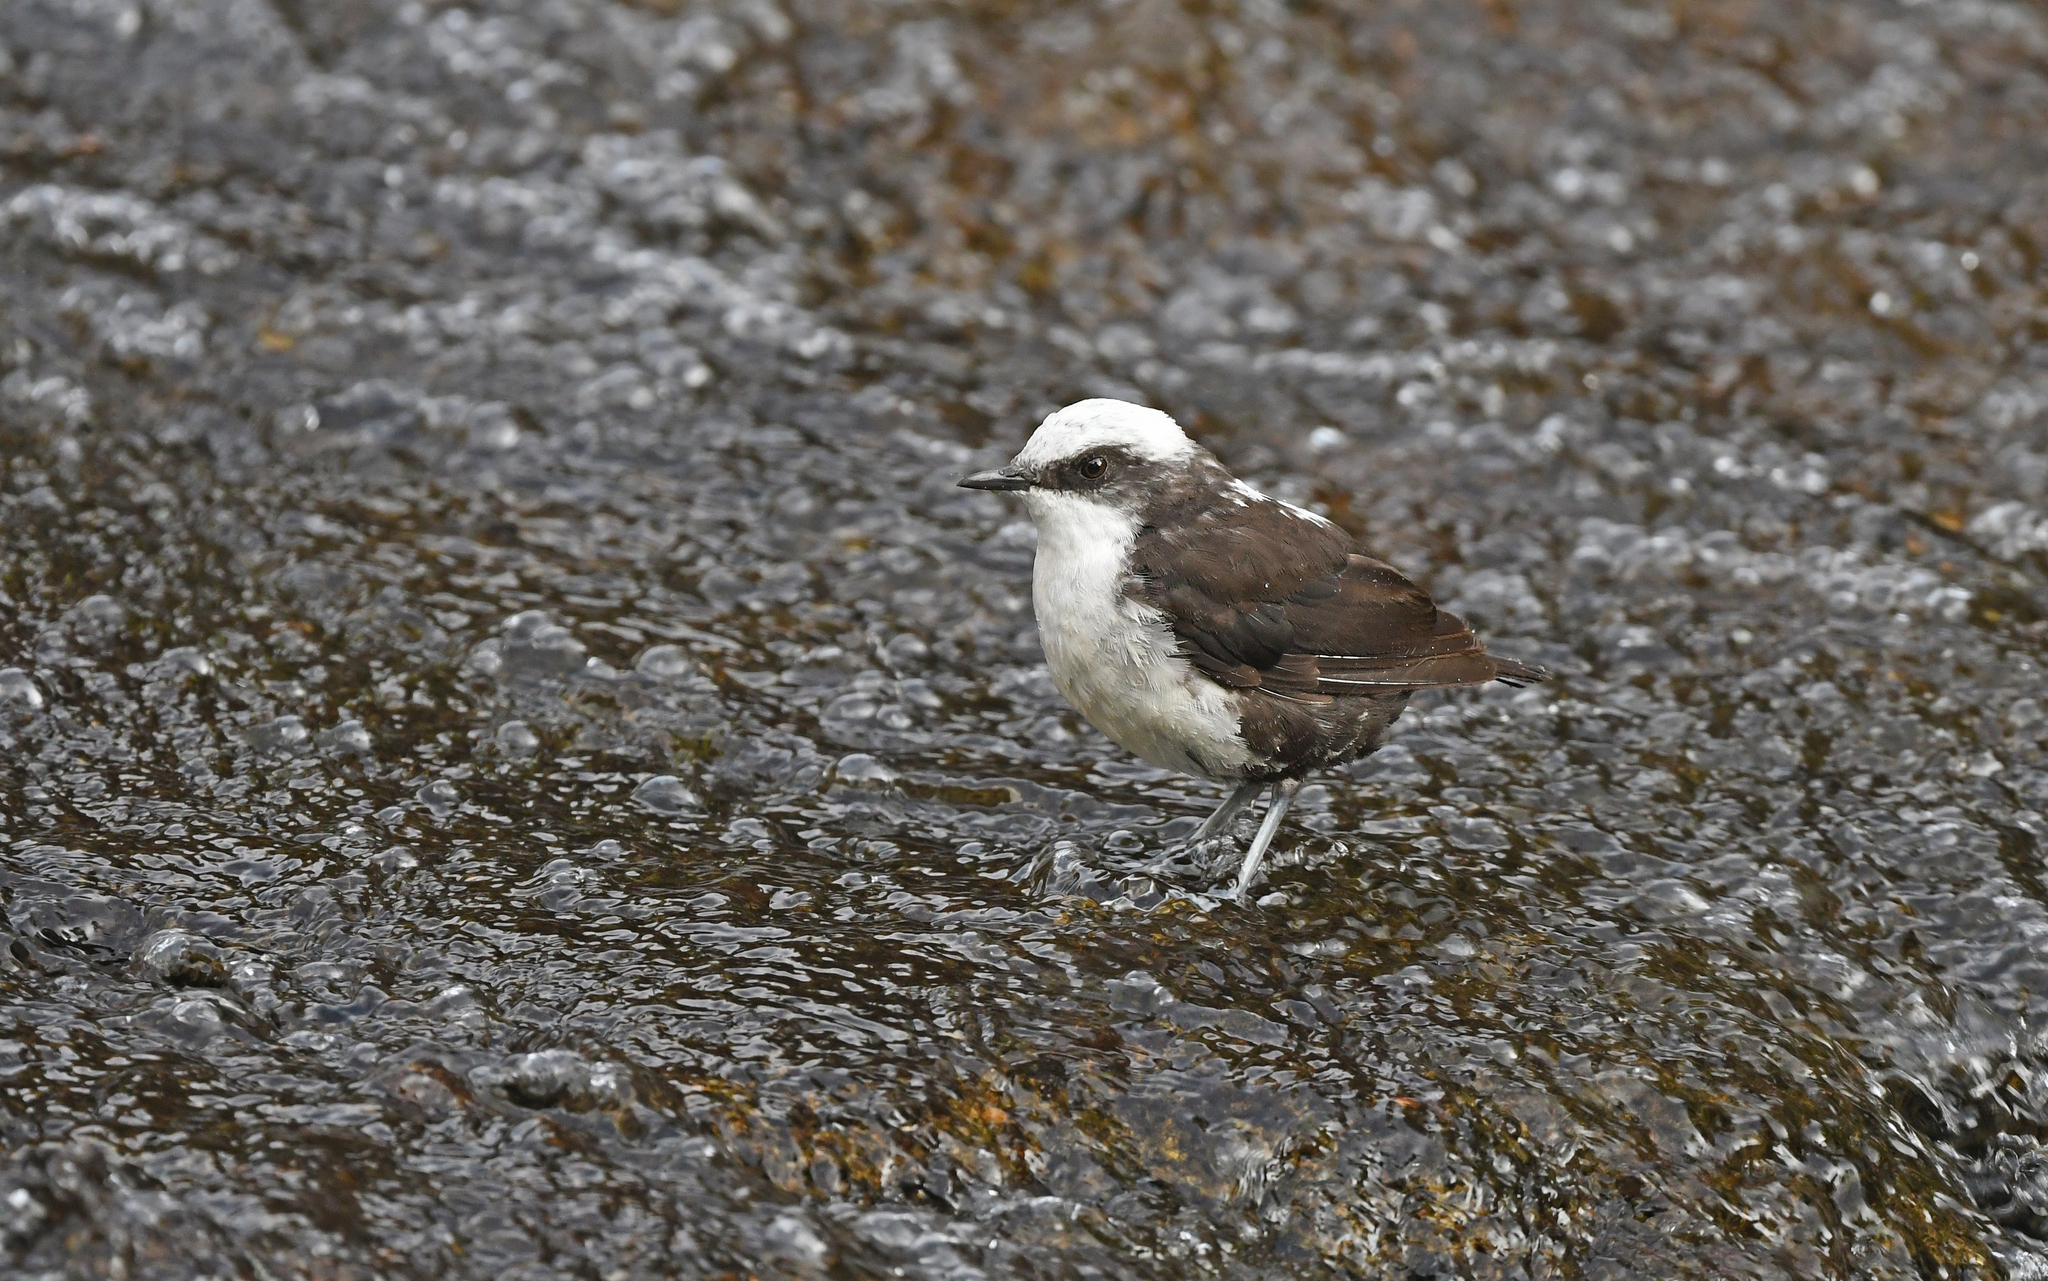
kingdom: Animalia
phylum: Chordata
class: Aves
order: Passeriformes
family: Cinclidae
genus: Cinclus
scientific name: Cinclus leucocephalus
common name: White-capped dipper
